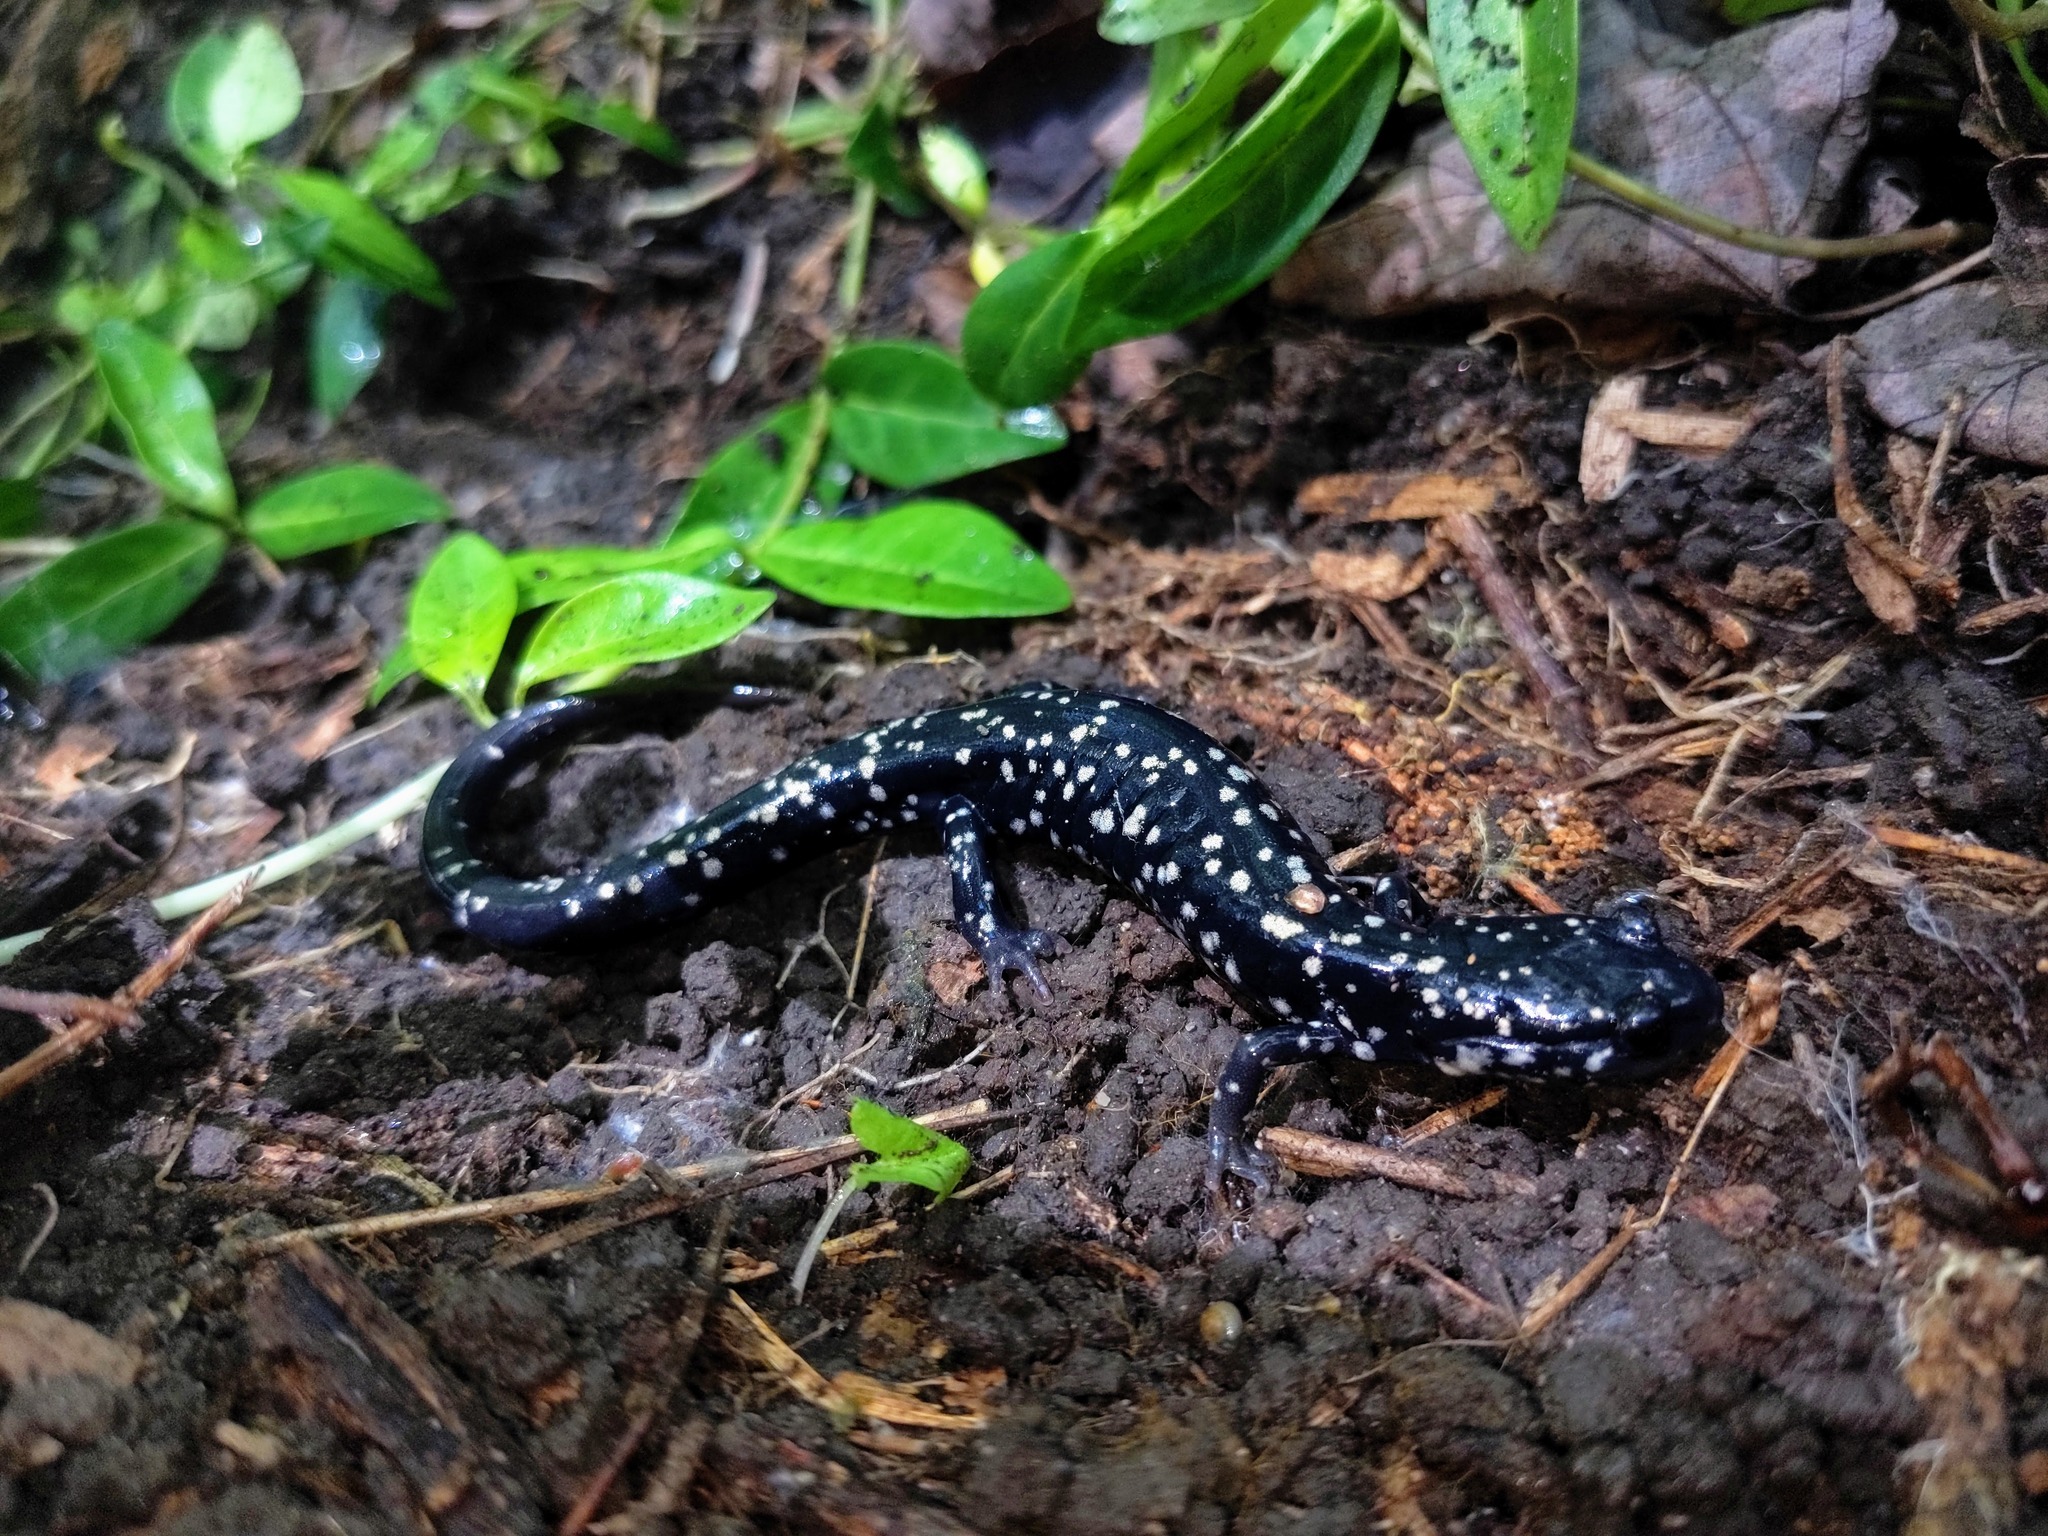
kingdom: Animalia
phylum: Chordata
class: Amphibia
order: Caudata
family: Plethodontidae
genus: Plethodon
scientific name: Plethodon glutinosus
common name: Northern slimy salamander
